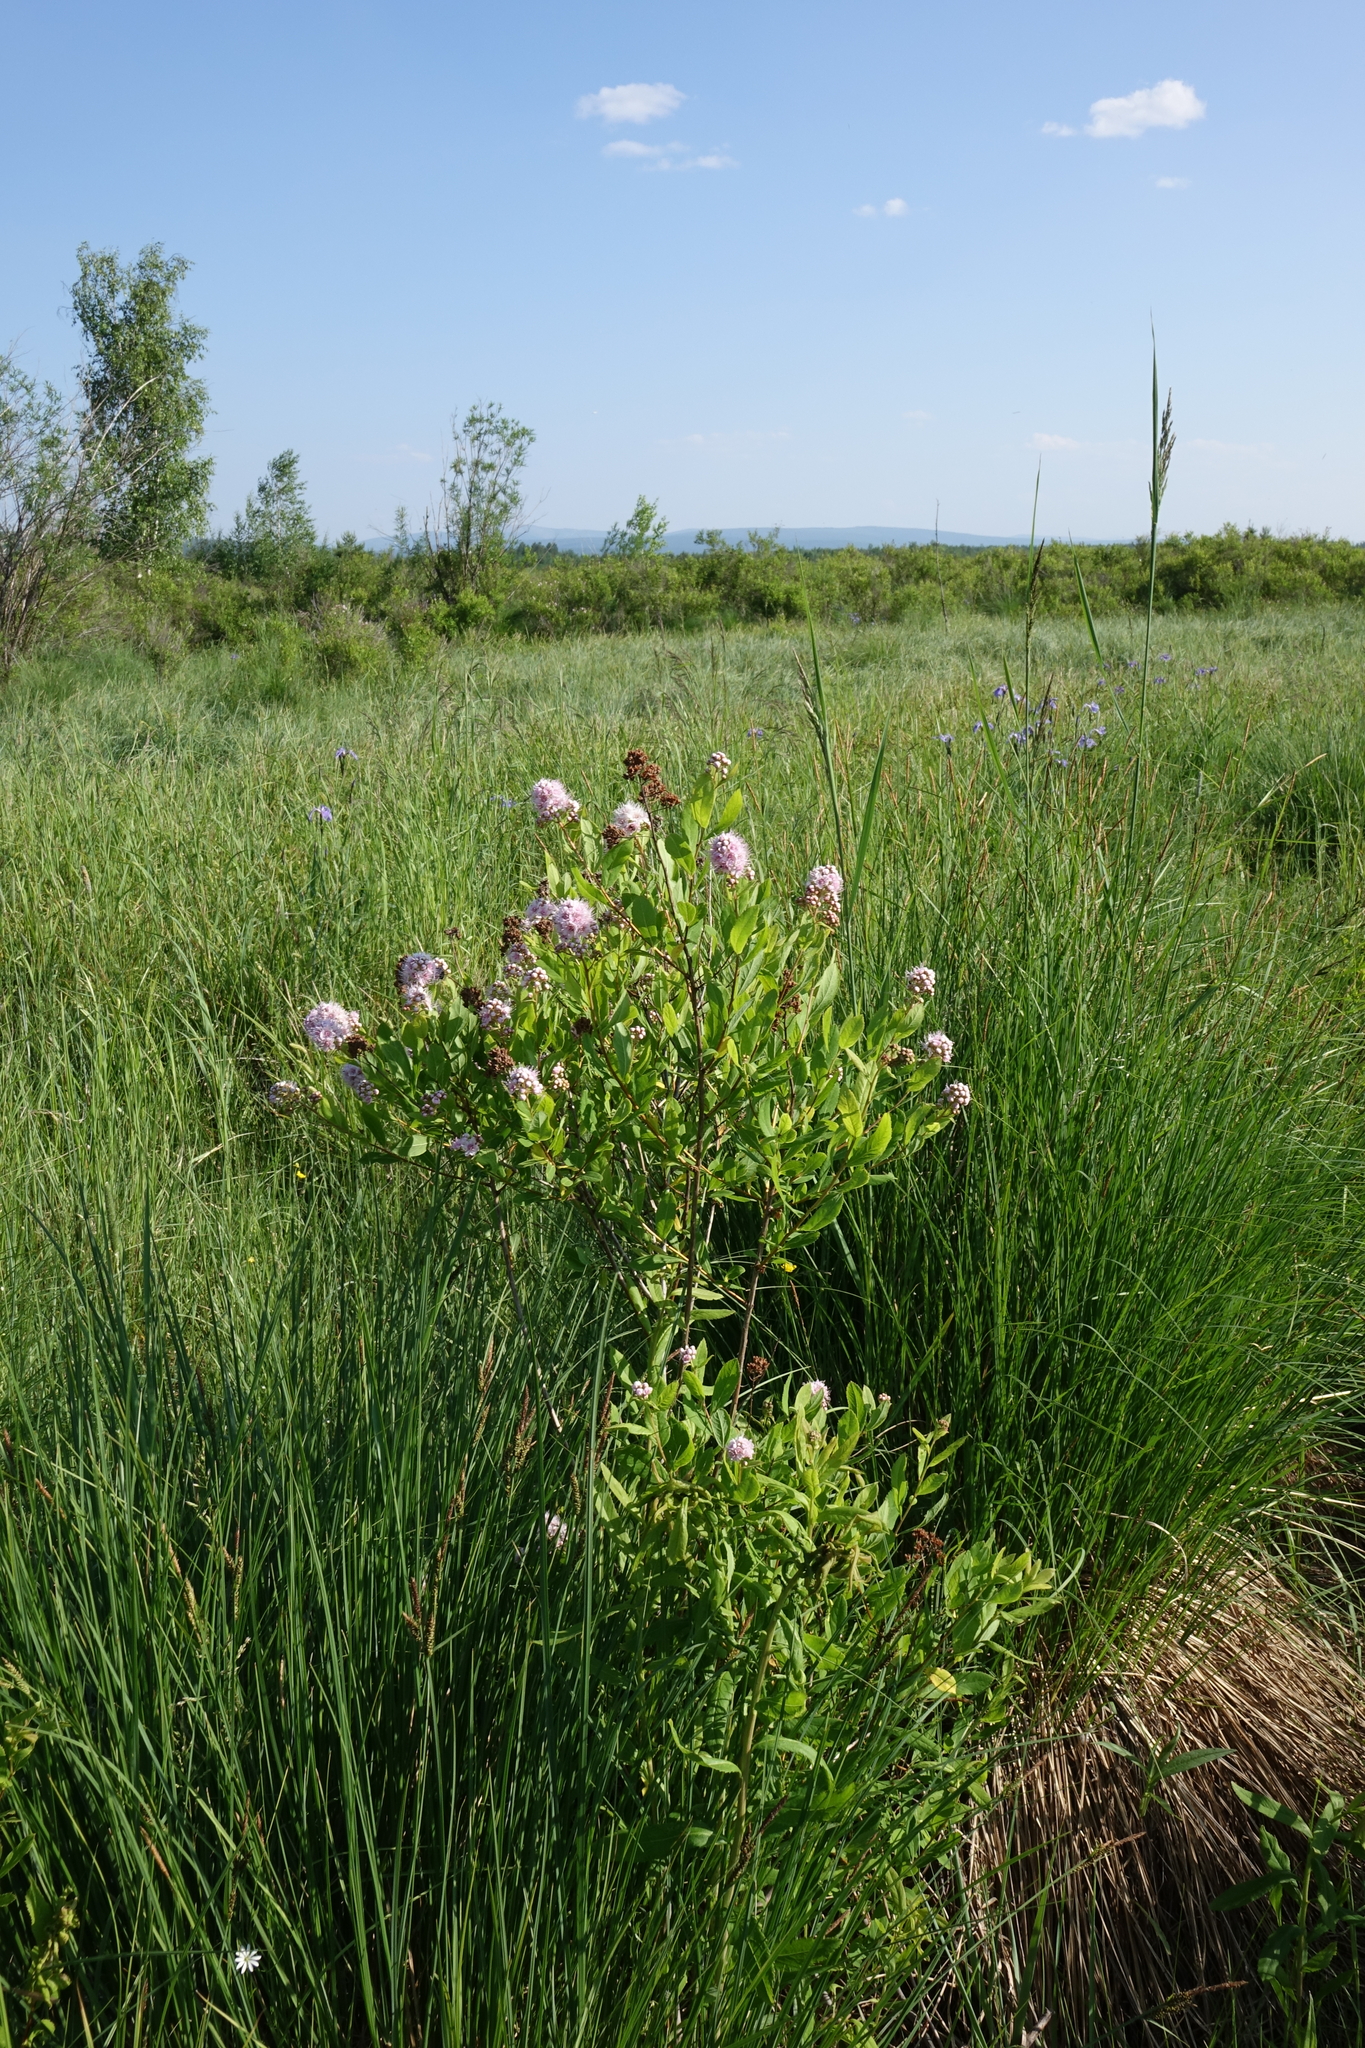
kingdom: Plantae
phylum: Tracheophyta
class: Magnoliopsida
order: Rosales
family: Rosaceae
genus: Spiraea
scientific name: Spiraea salicifolia
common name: Bridewort
